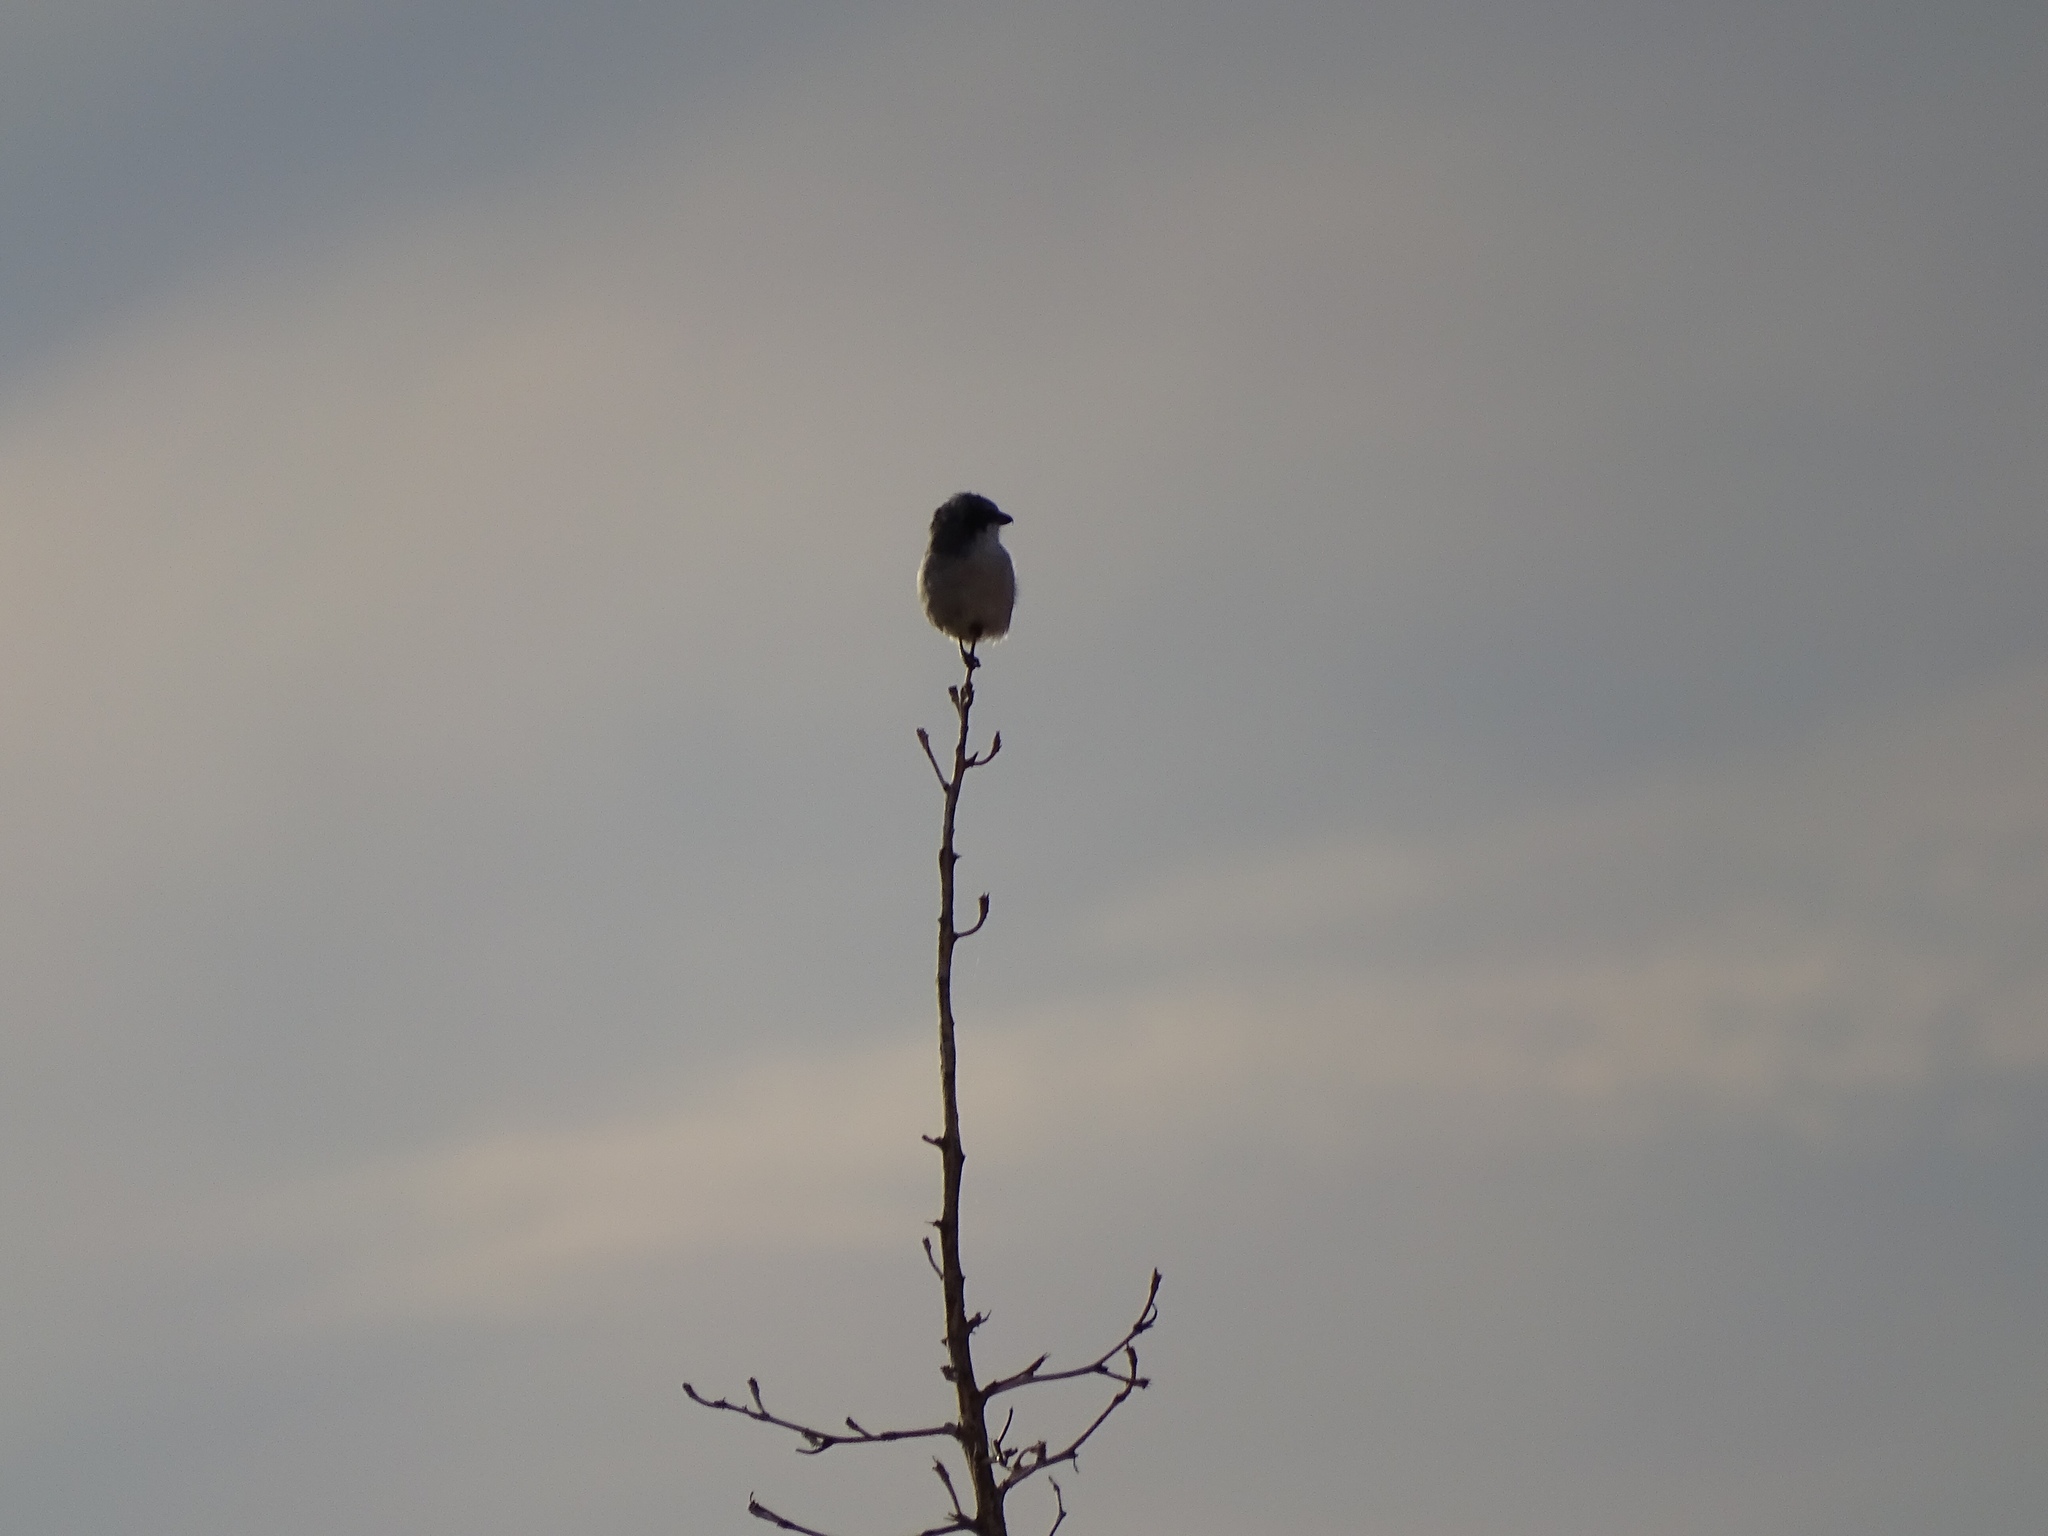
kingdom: Animalia
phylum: Chordata
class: Aves
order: Passeriformes
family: Laniidae
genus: Lanius
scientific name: Lanius ludovicianus
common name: Loggerhead shrike
